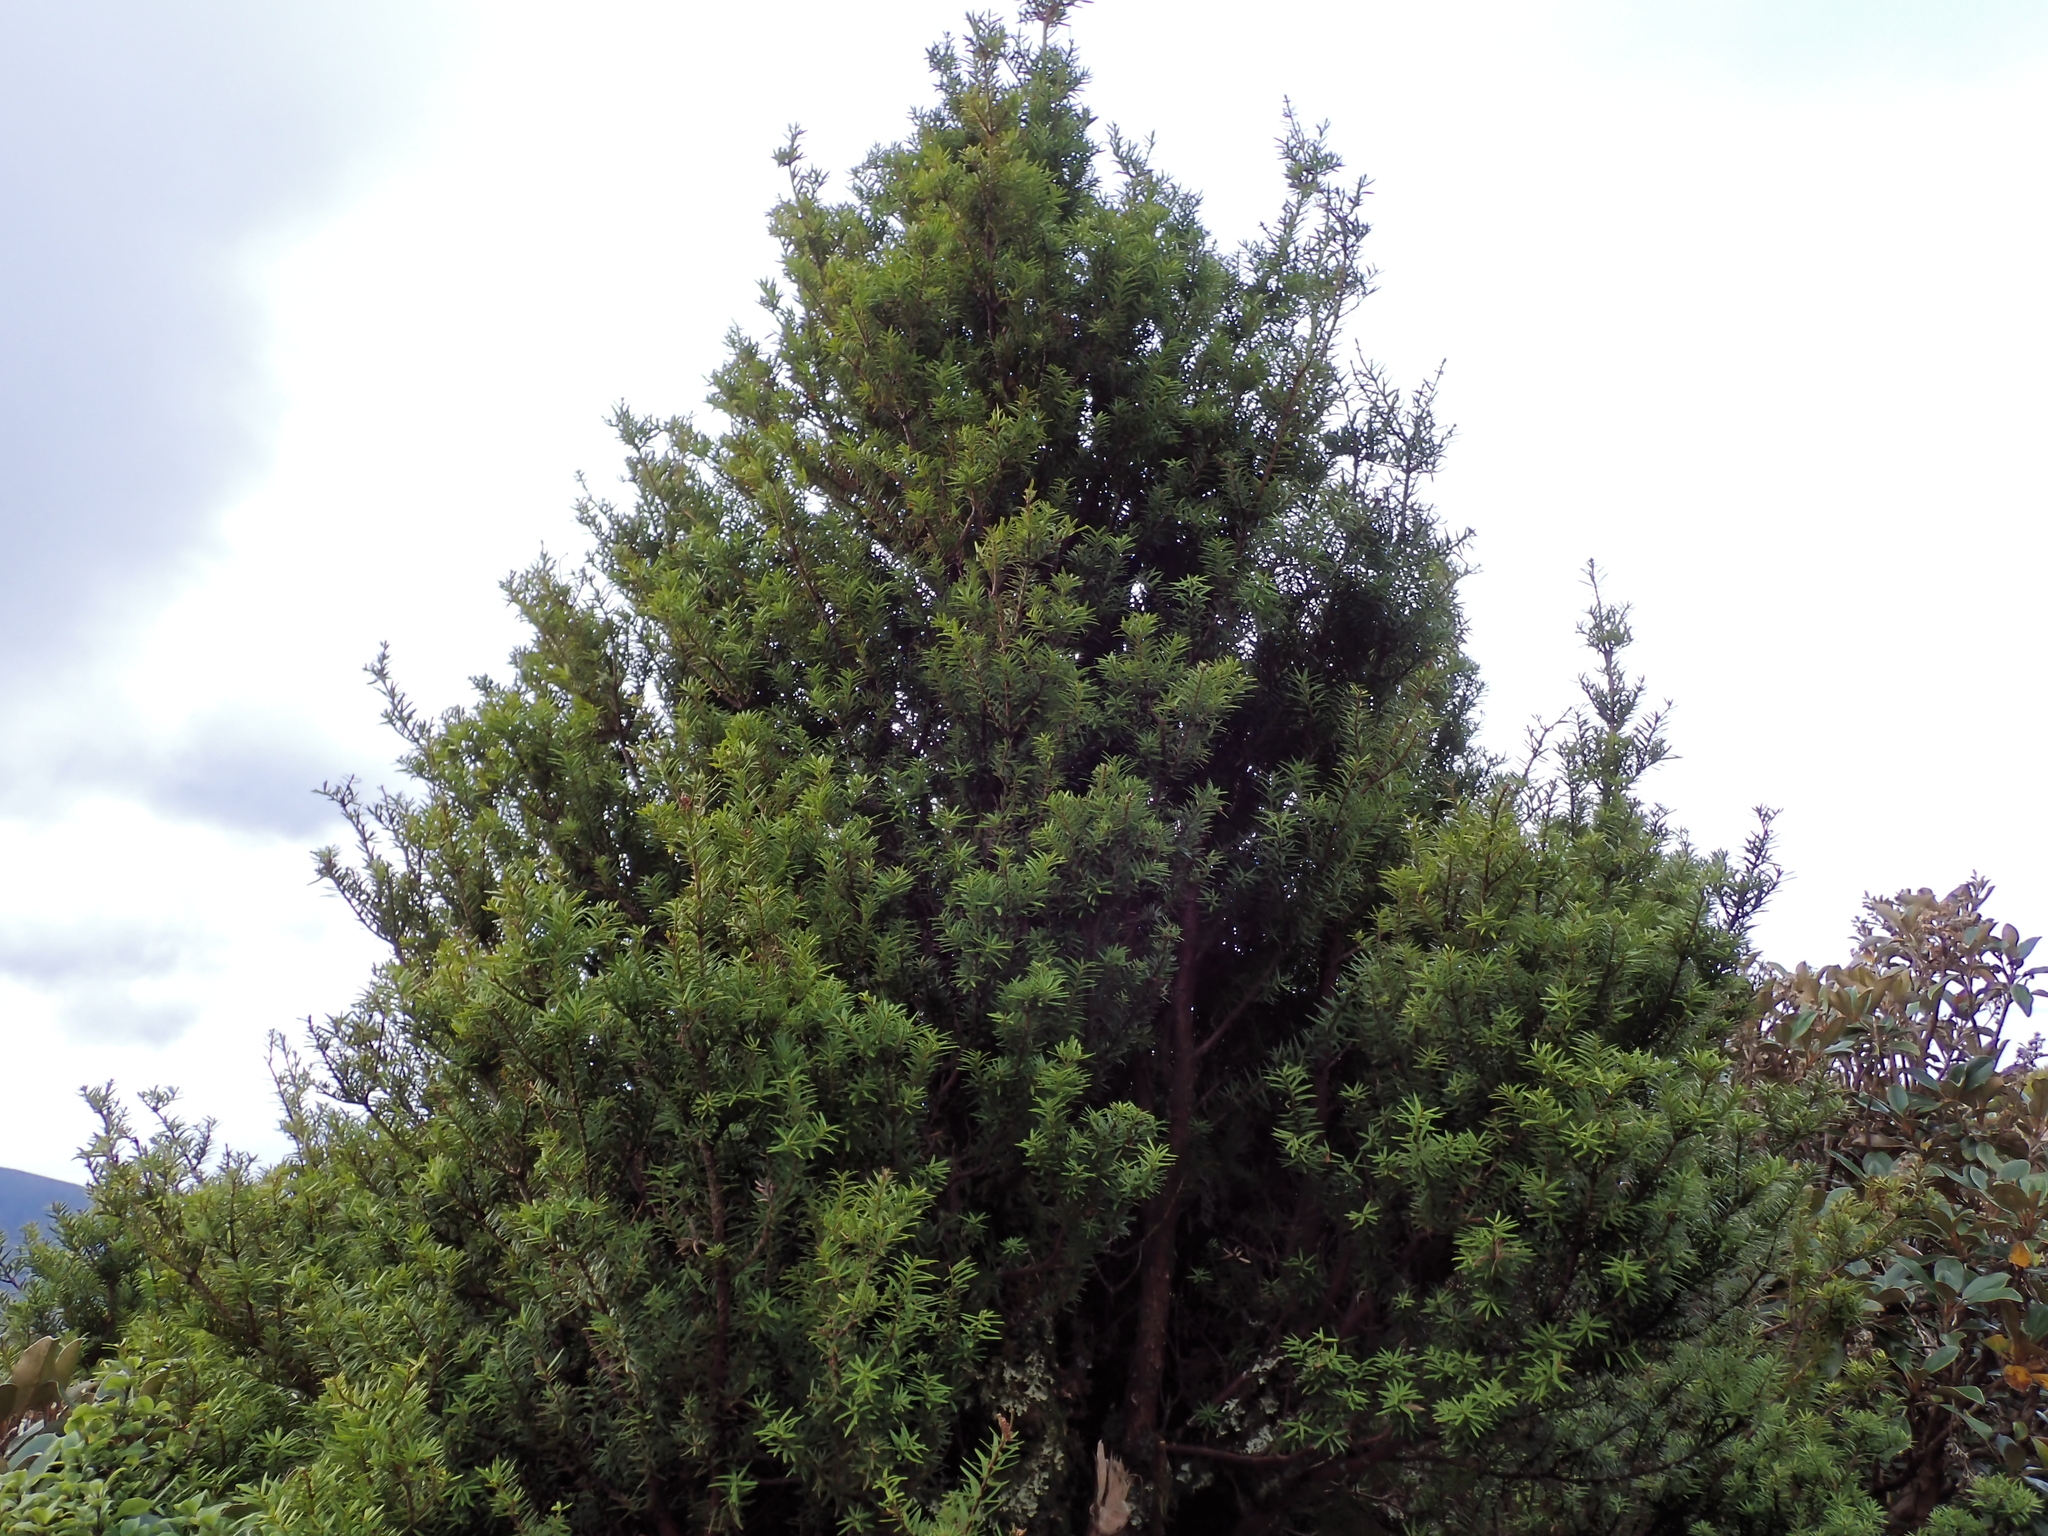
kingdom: Plantae
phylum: Tracheophyta
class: Pinopsida
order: Pinales
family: Podocarpaceae
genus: Podocarpus
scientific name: Podocarpus laetus
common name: Hall's totara
